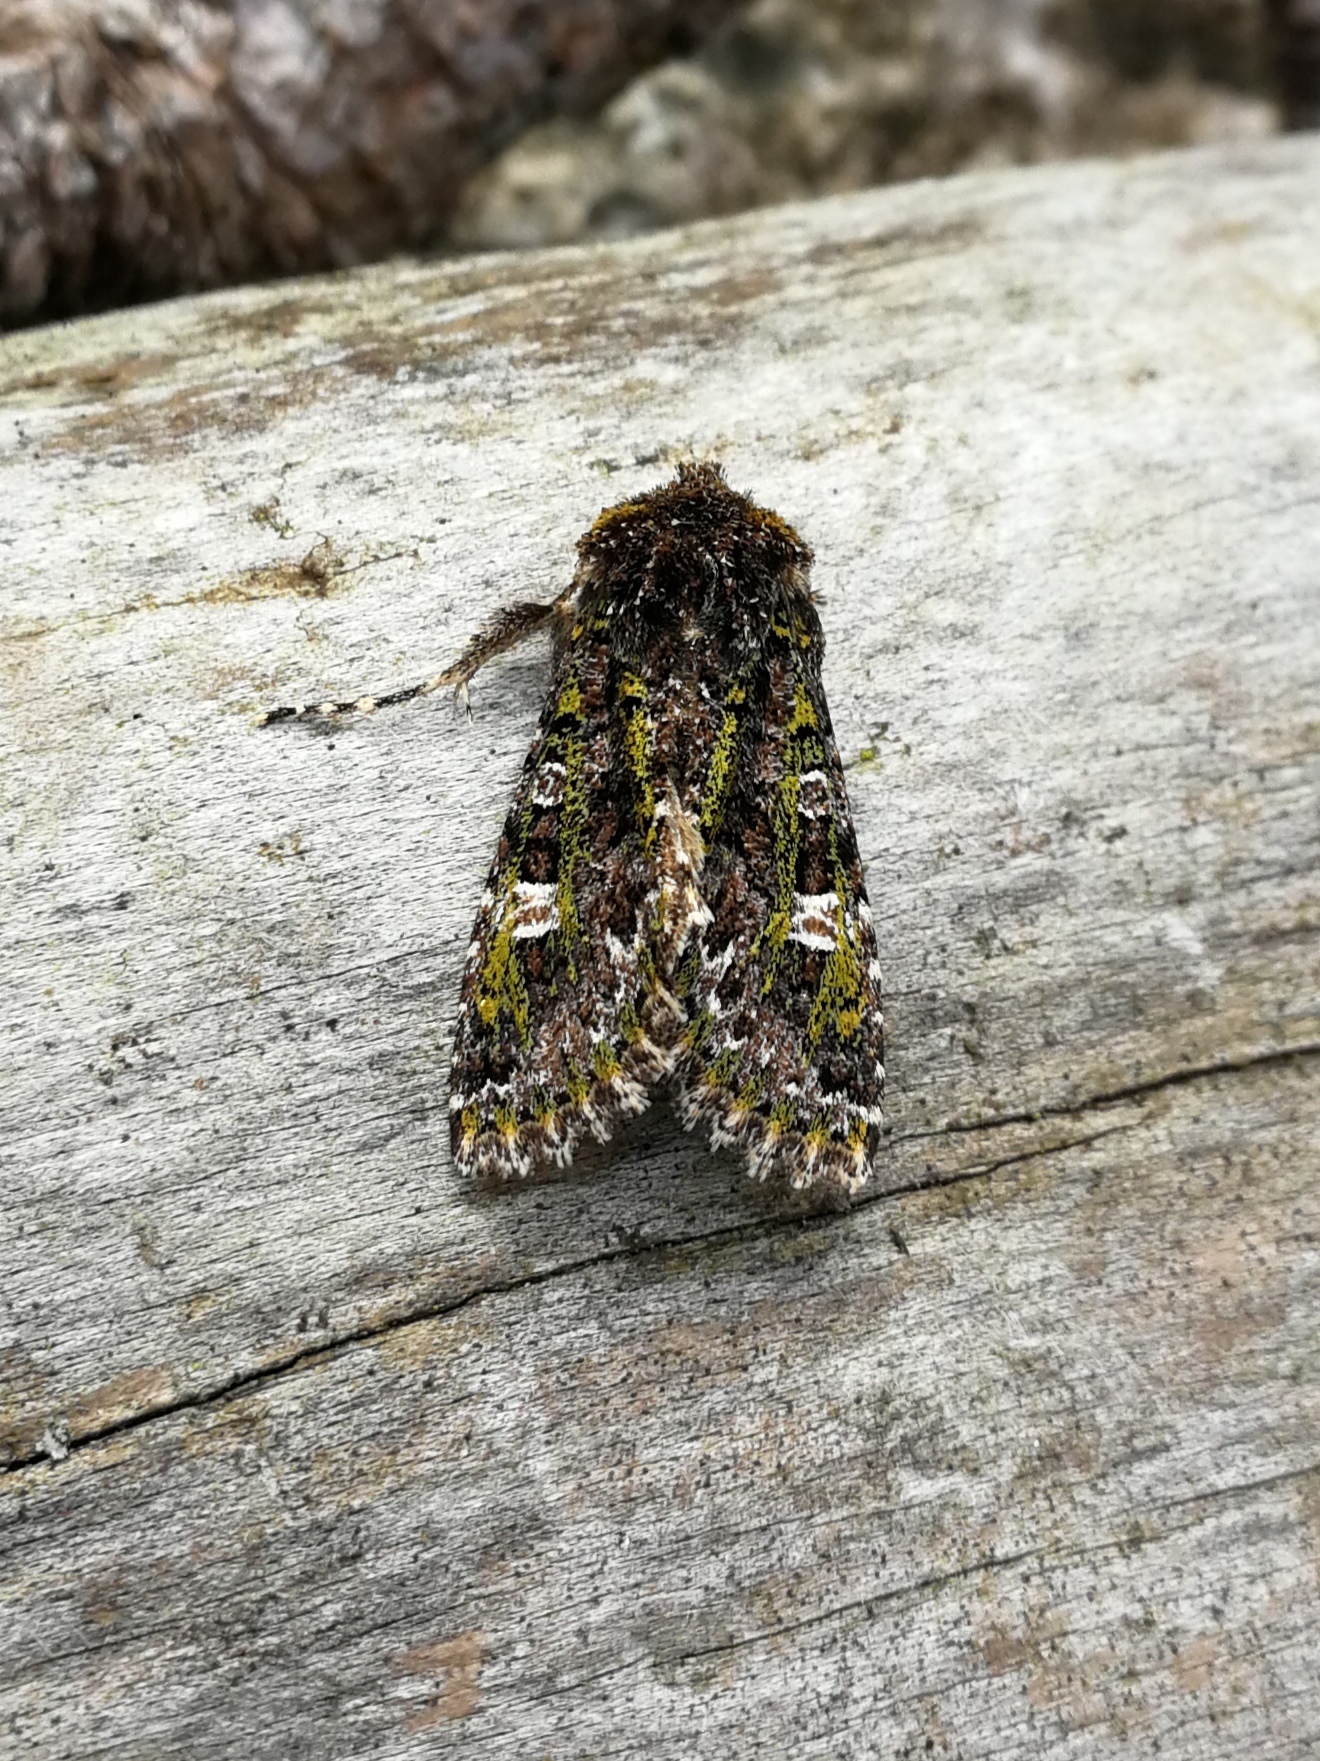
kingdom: Animalia
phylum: Arthropoda
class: Insecta
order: Lepidoptera
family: Noctuidae
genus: Valeria
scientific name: Valeria jaspidea
